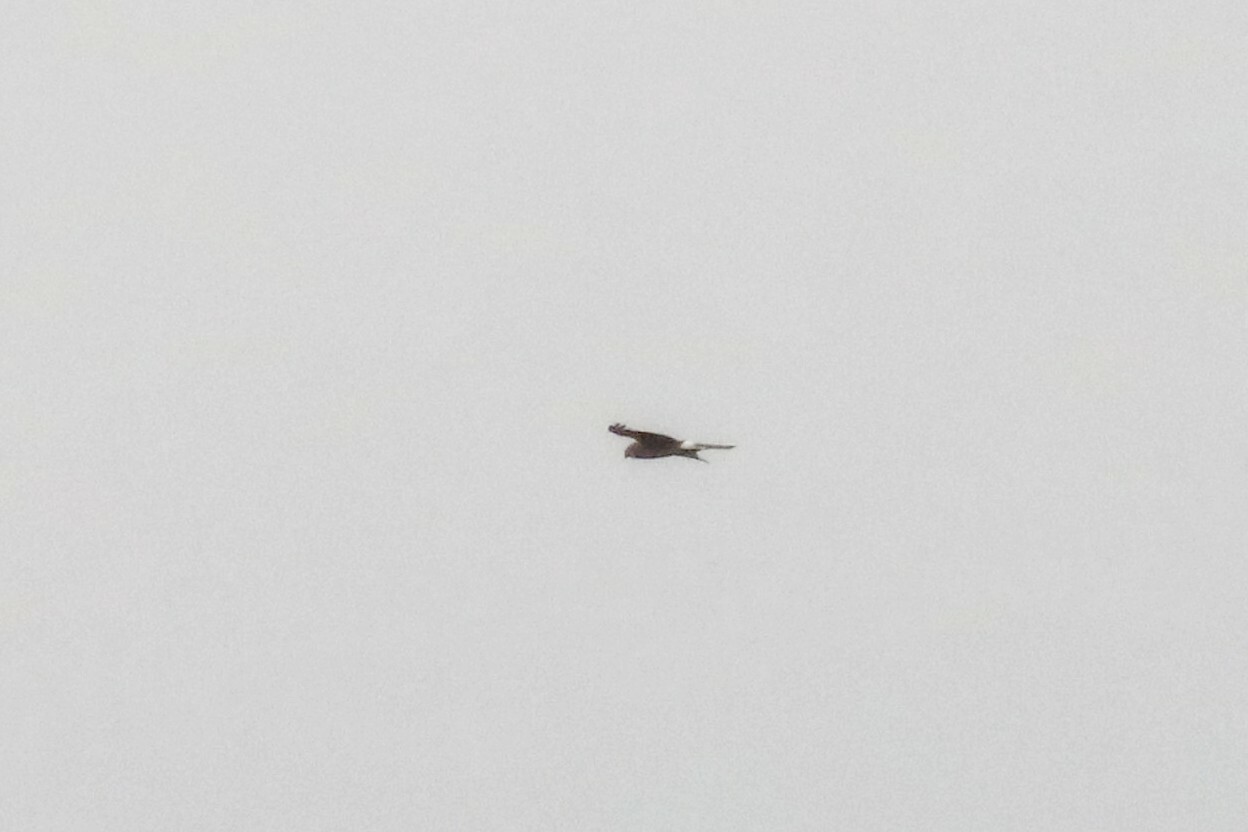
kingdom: Animalia
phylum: Chordata
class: Aves
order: Accipitriformes
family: Accipitridae
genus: Circus
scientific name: Circus cyaneus
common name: Hen harrier
